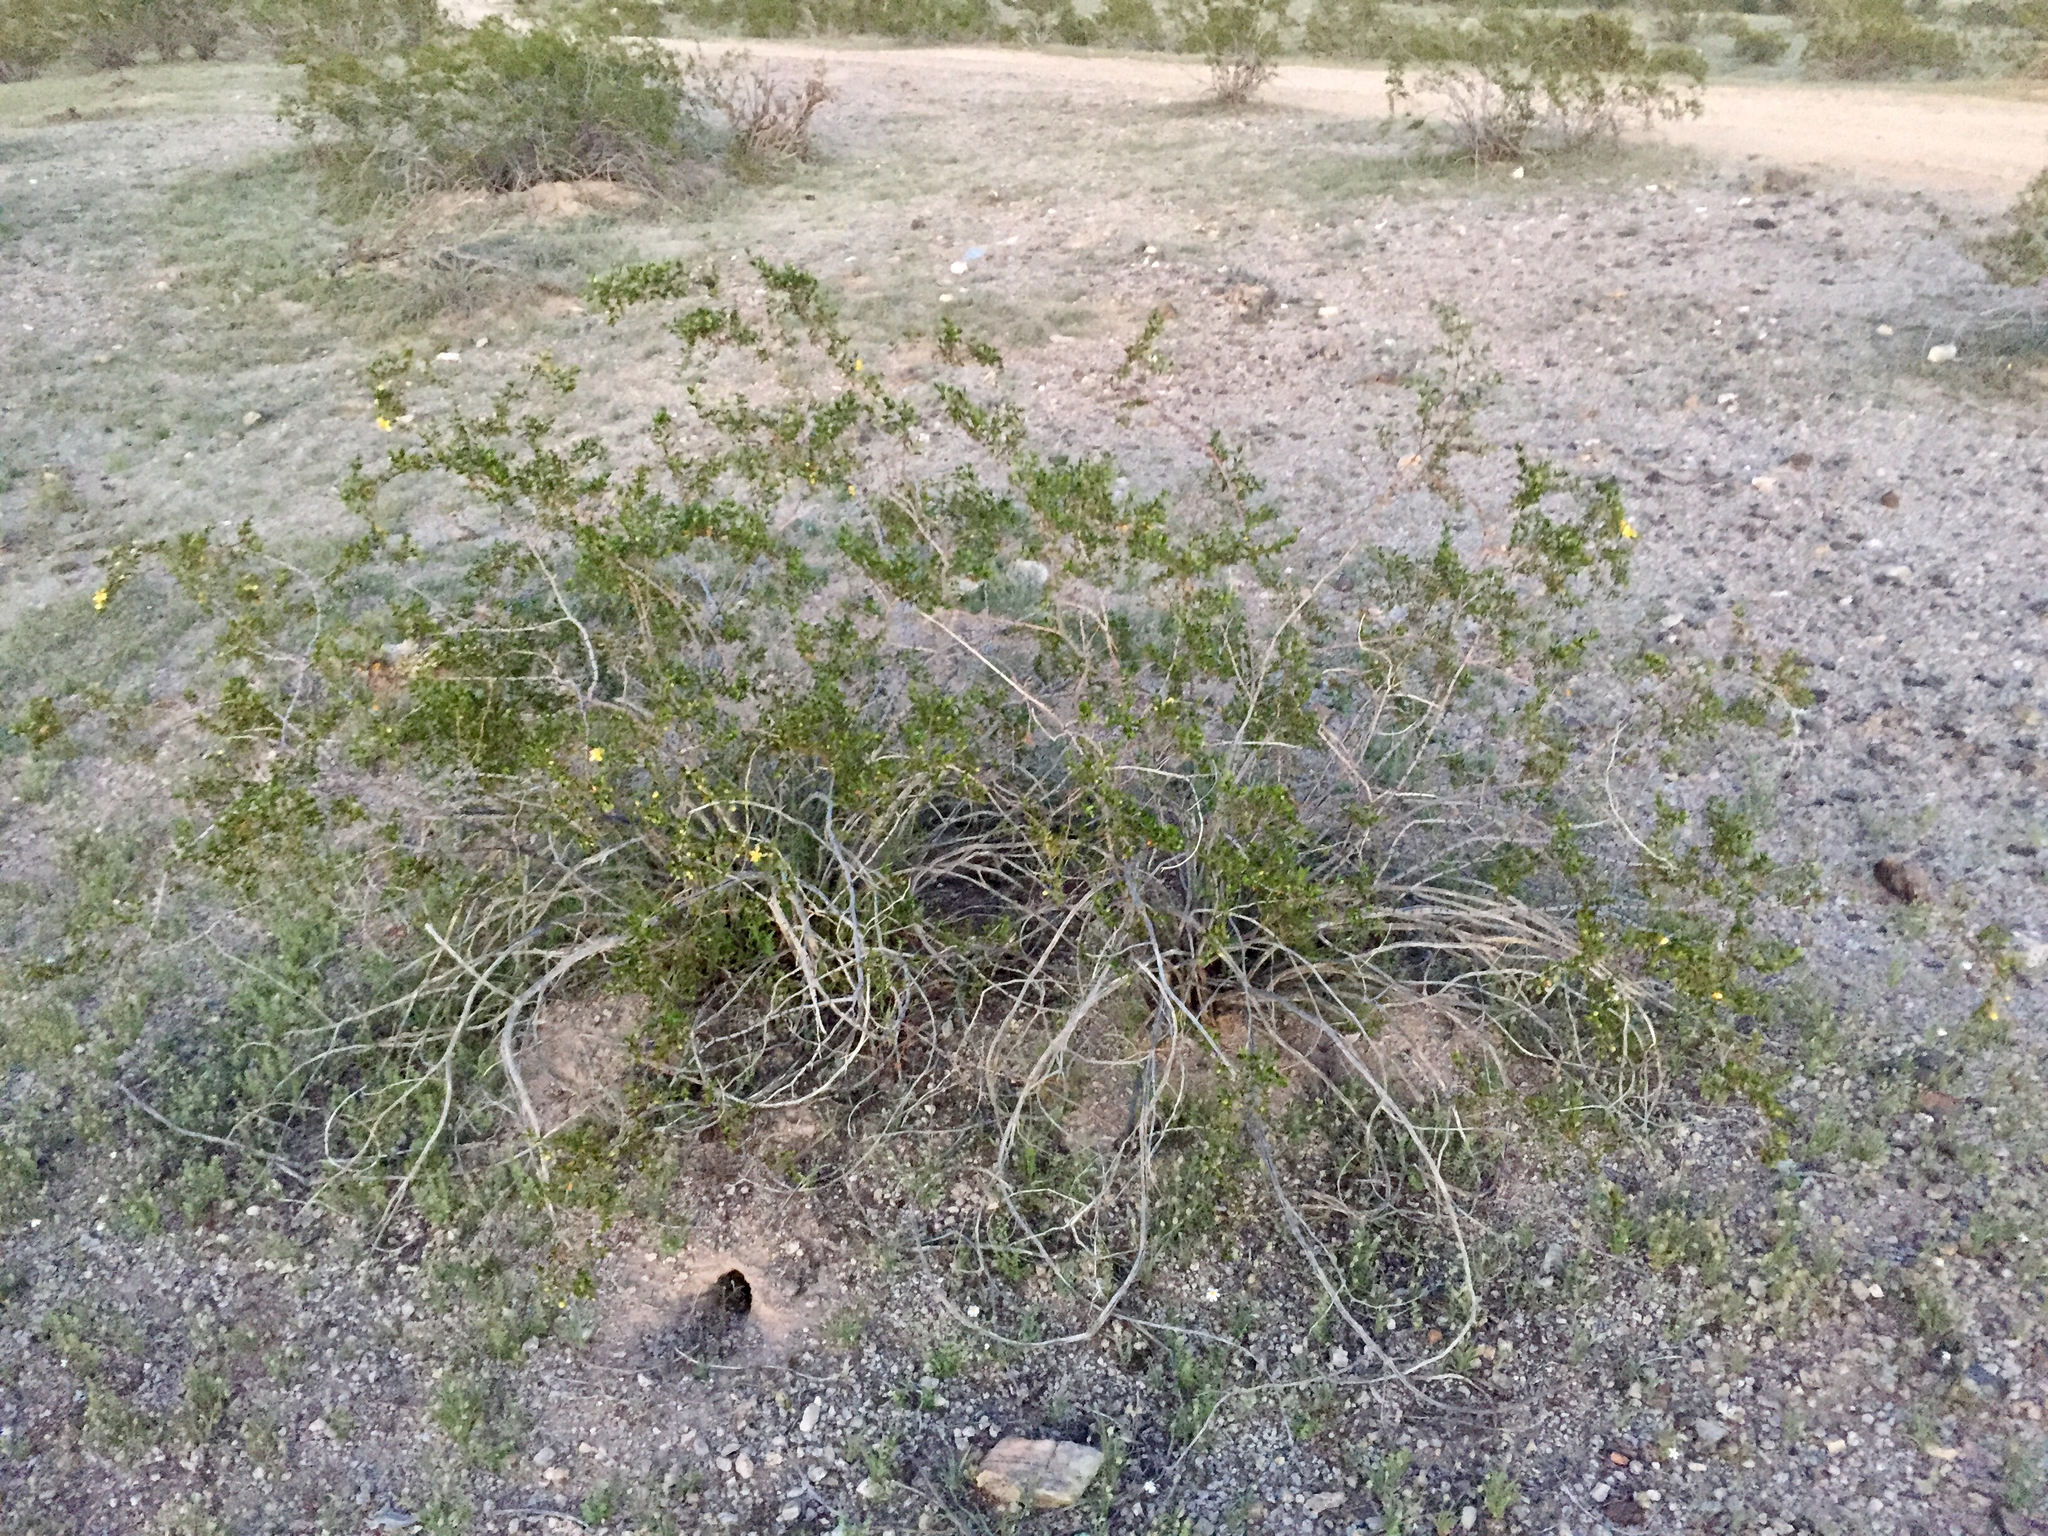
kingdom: Plantae
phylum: Tracheophyta
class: Magnoliopsida
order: Zygophyllales
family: Zygophyllaceae
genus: Larrea
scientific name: Larrea tridentata
